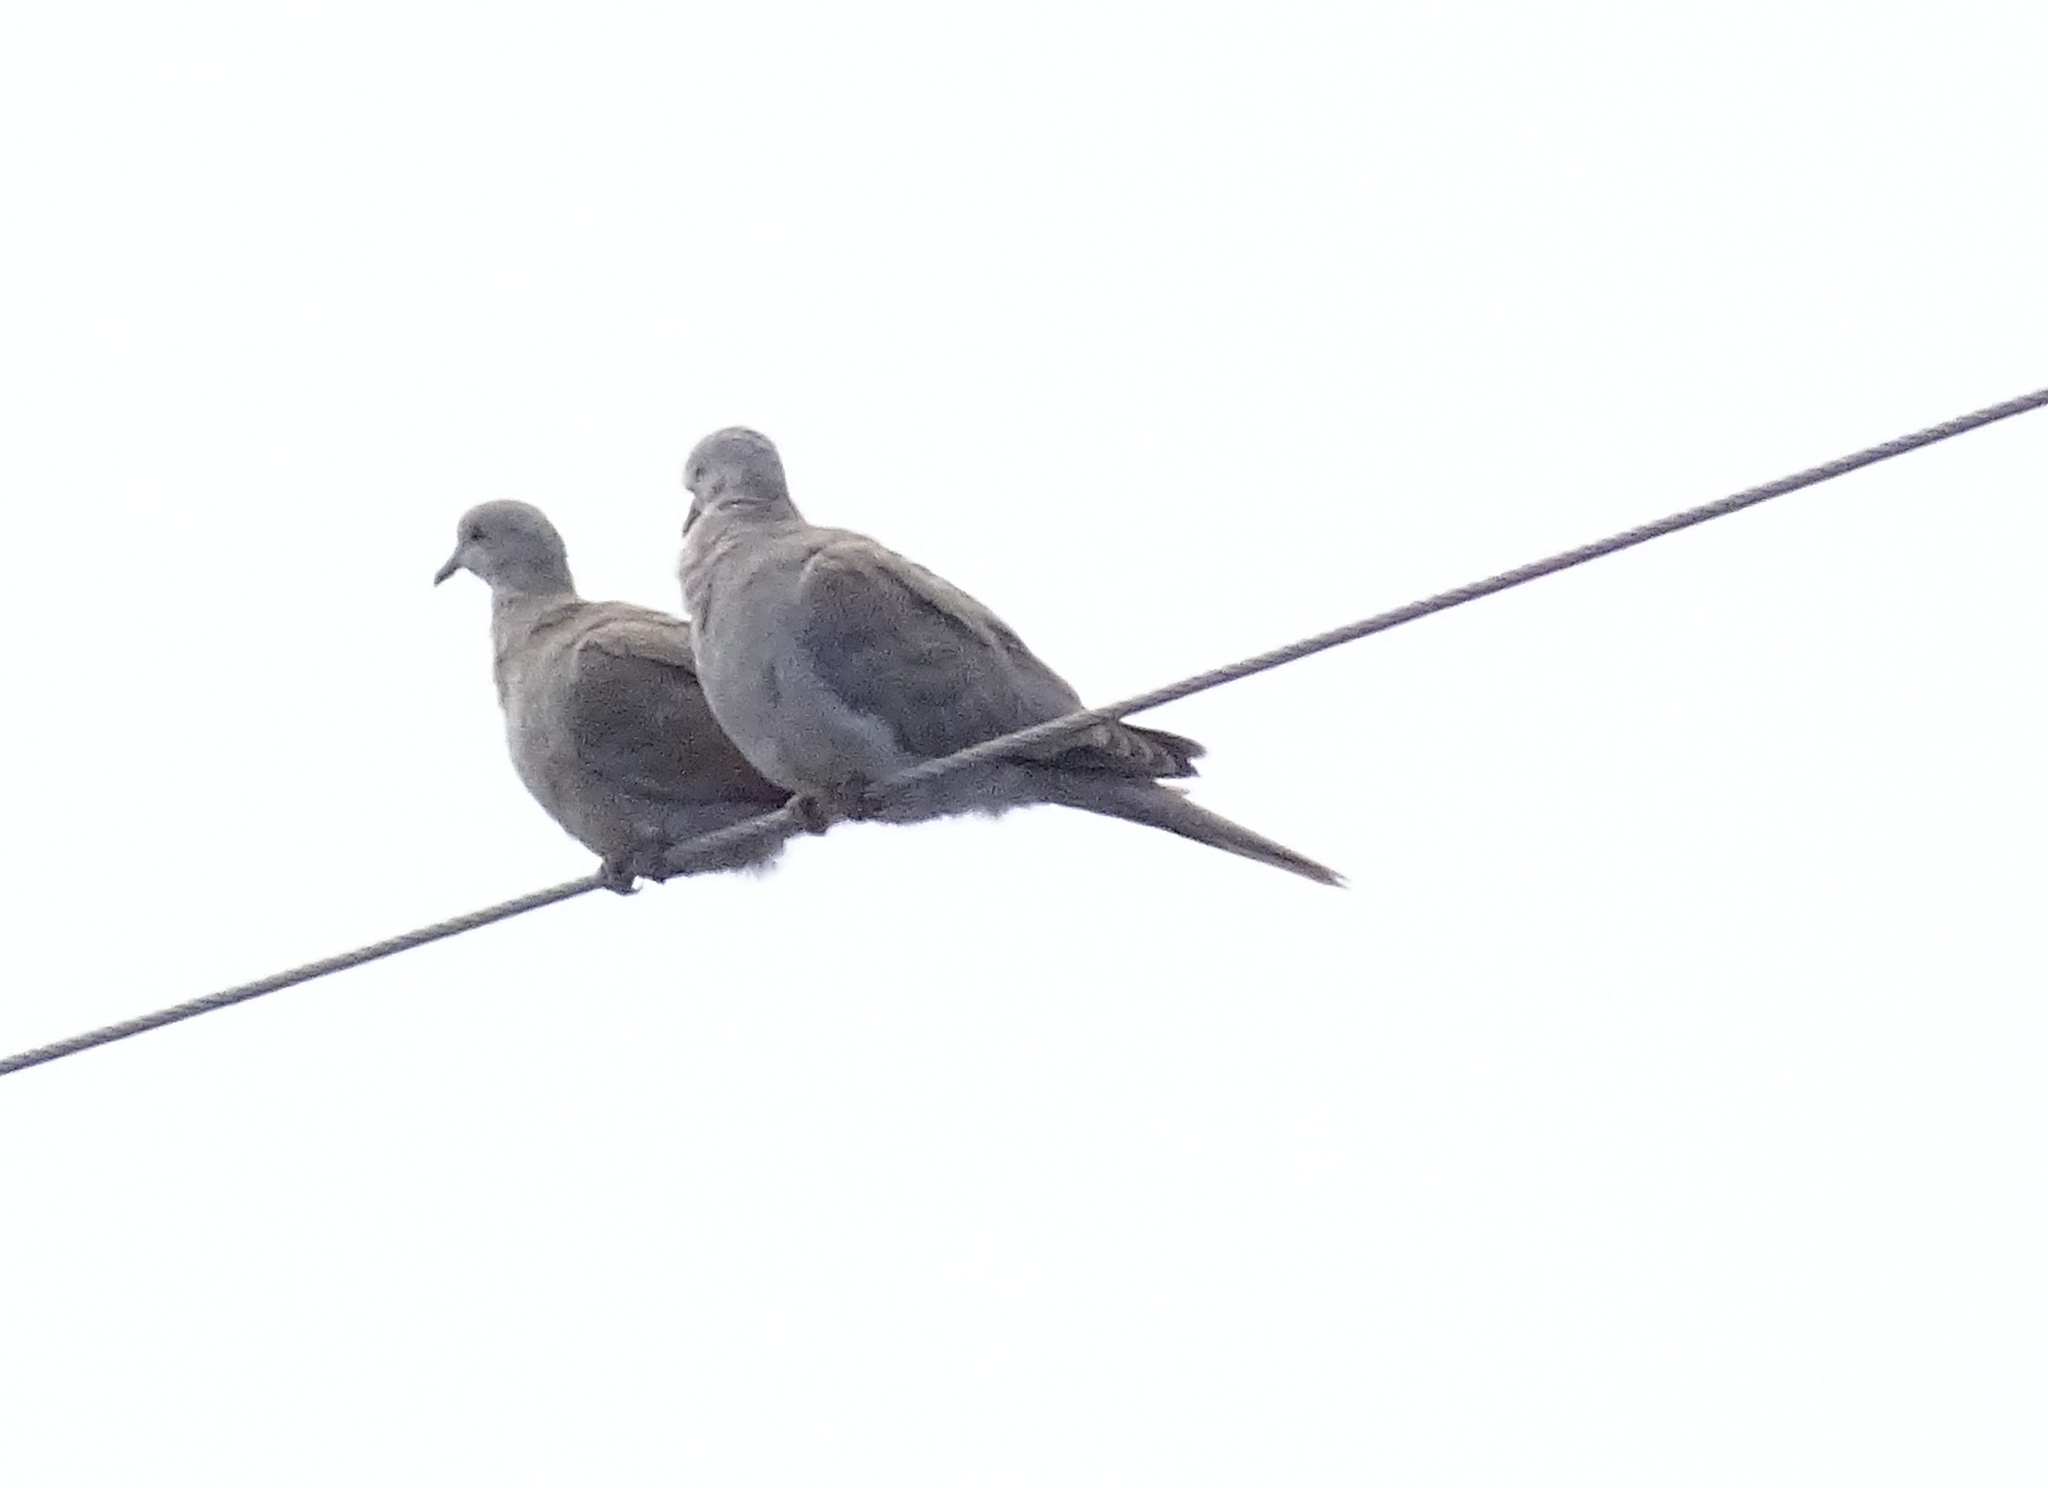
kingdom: Animalia
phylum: Chordata
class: Aves
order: Columbiformes
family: Columbidae
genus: Zenaida
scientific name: Zenaida macroura
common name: Mourning dove
